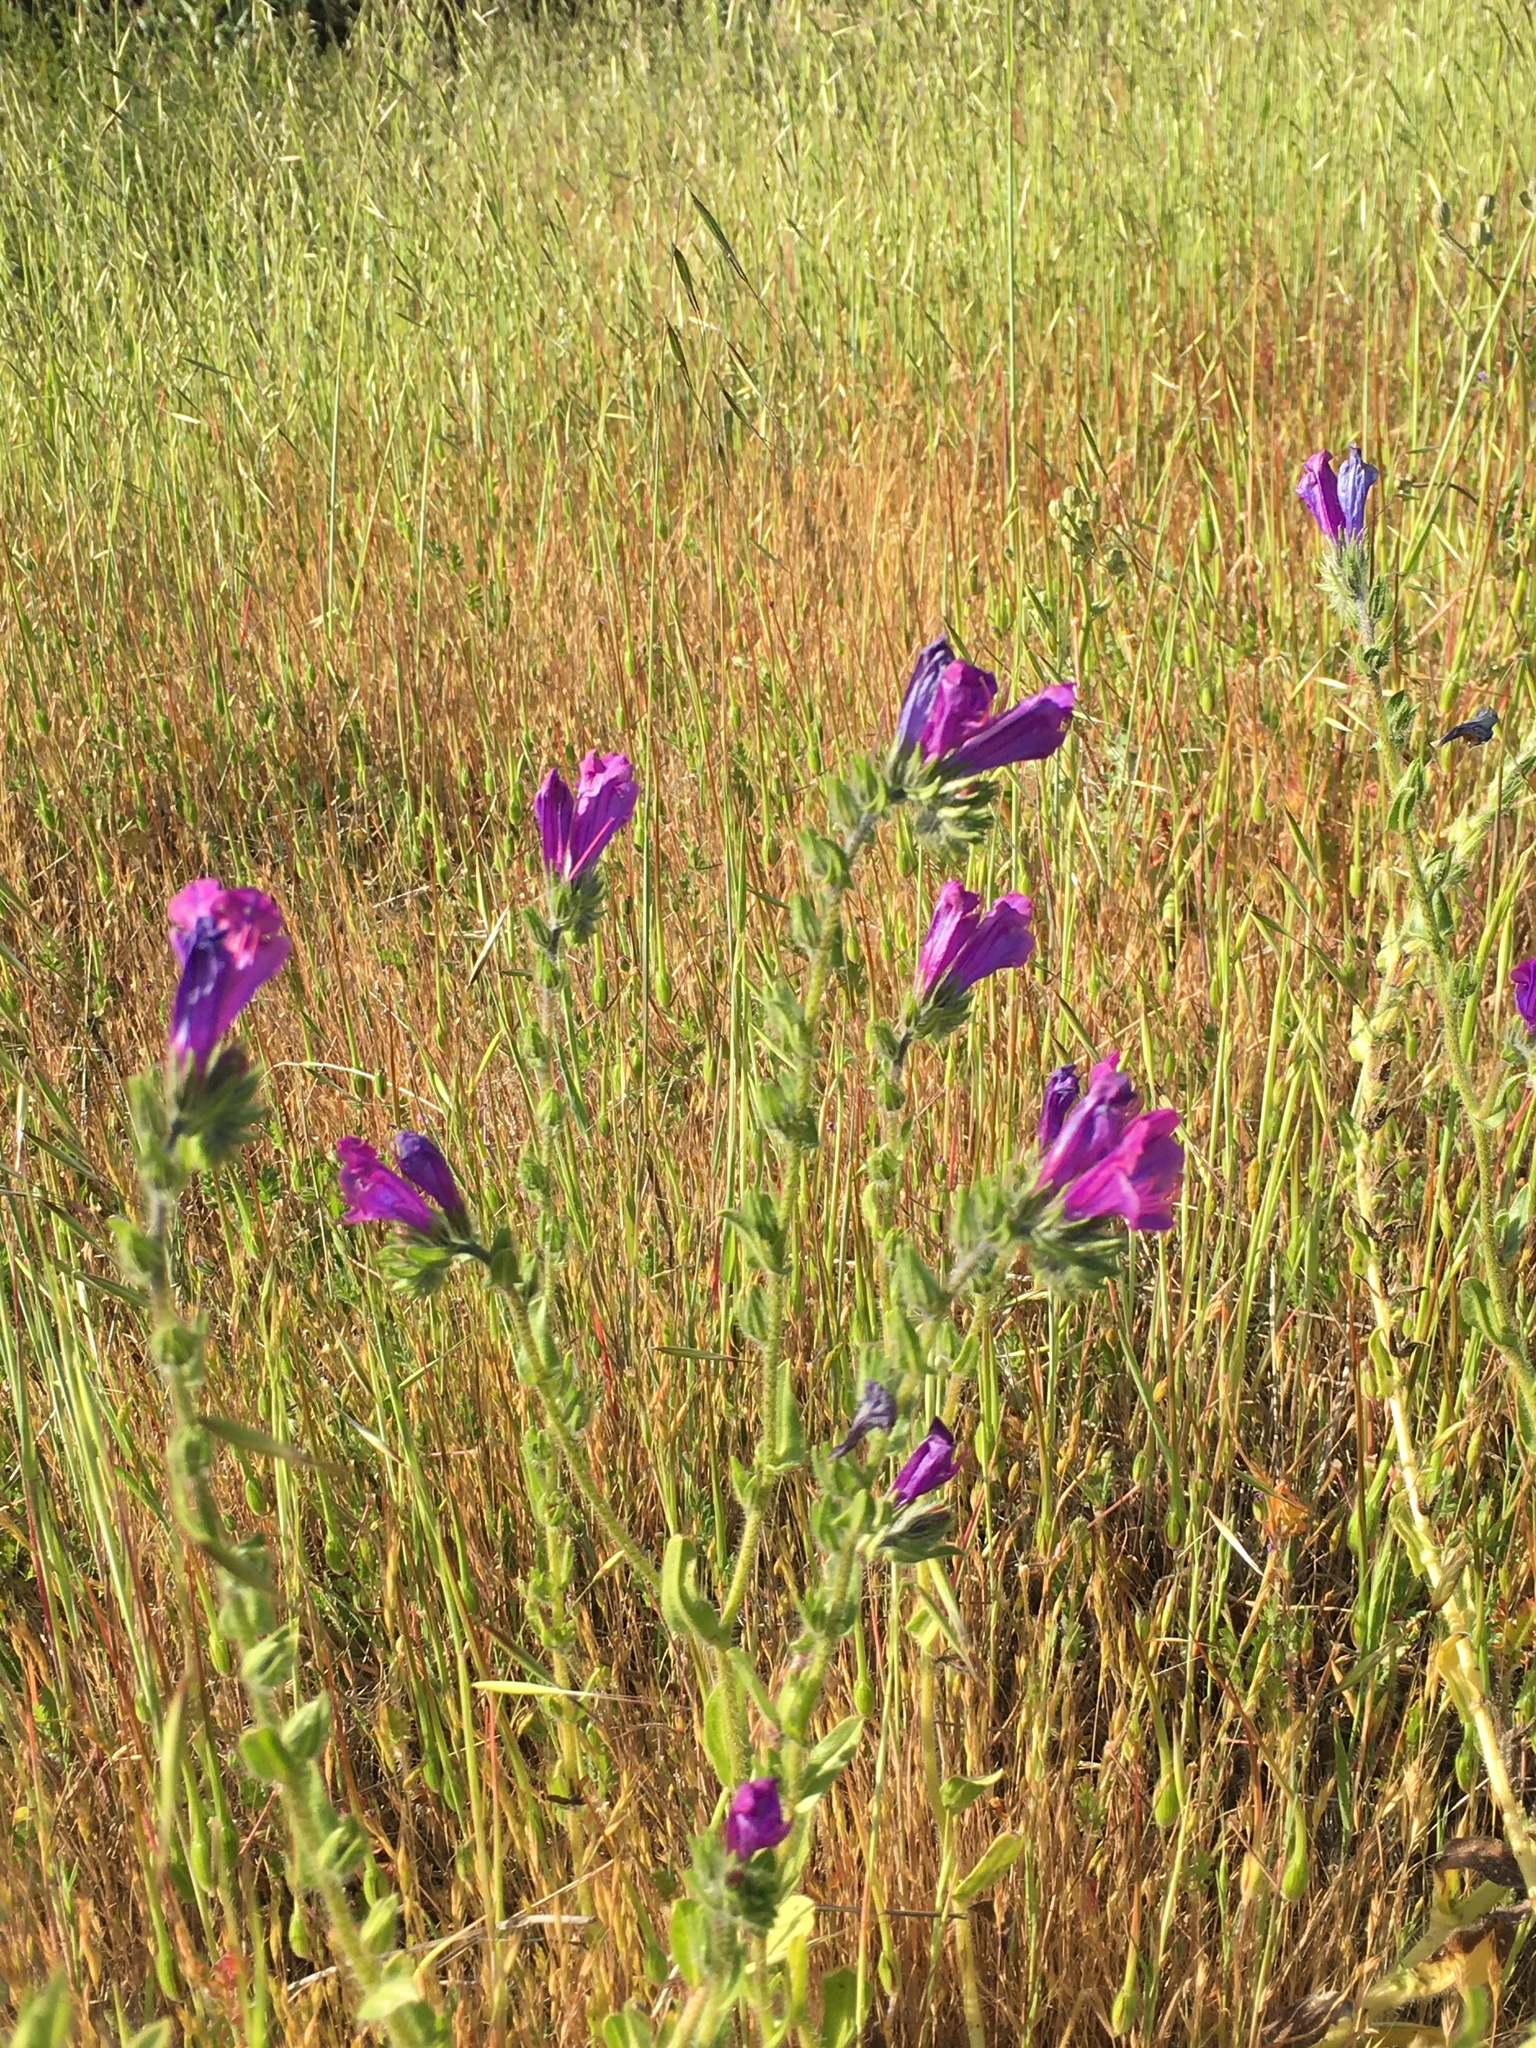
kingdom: Plantae
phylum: Tracheophyta
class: Magnoliopsida
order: Boraginales
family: Boraginaceae
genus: Echium
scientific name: Echium plantagineum
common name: Purple viper's-bugloss
